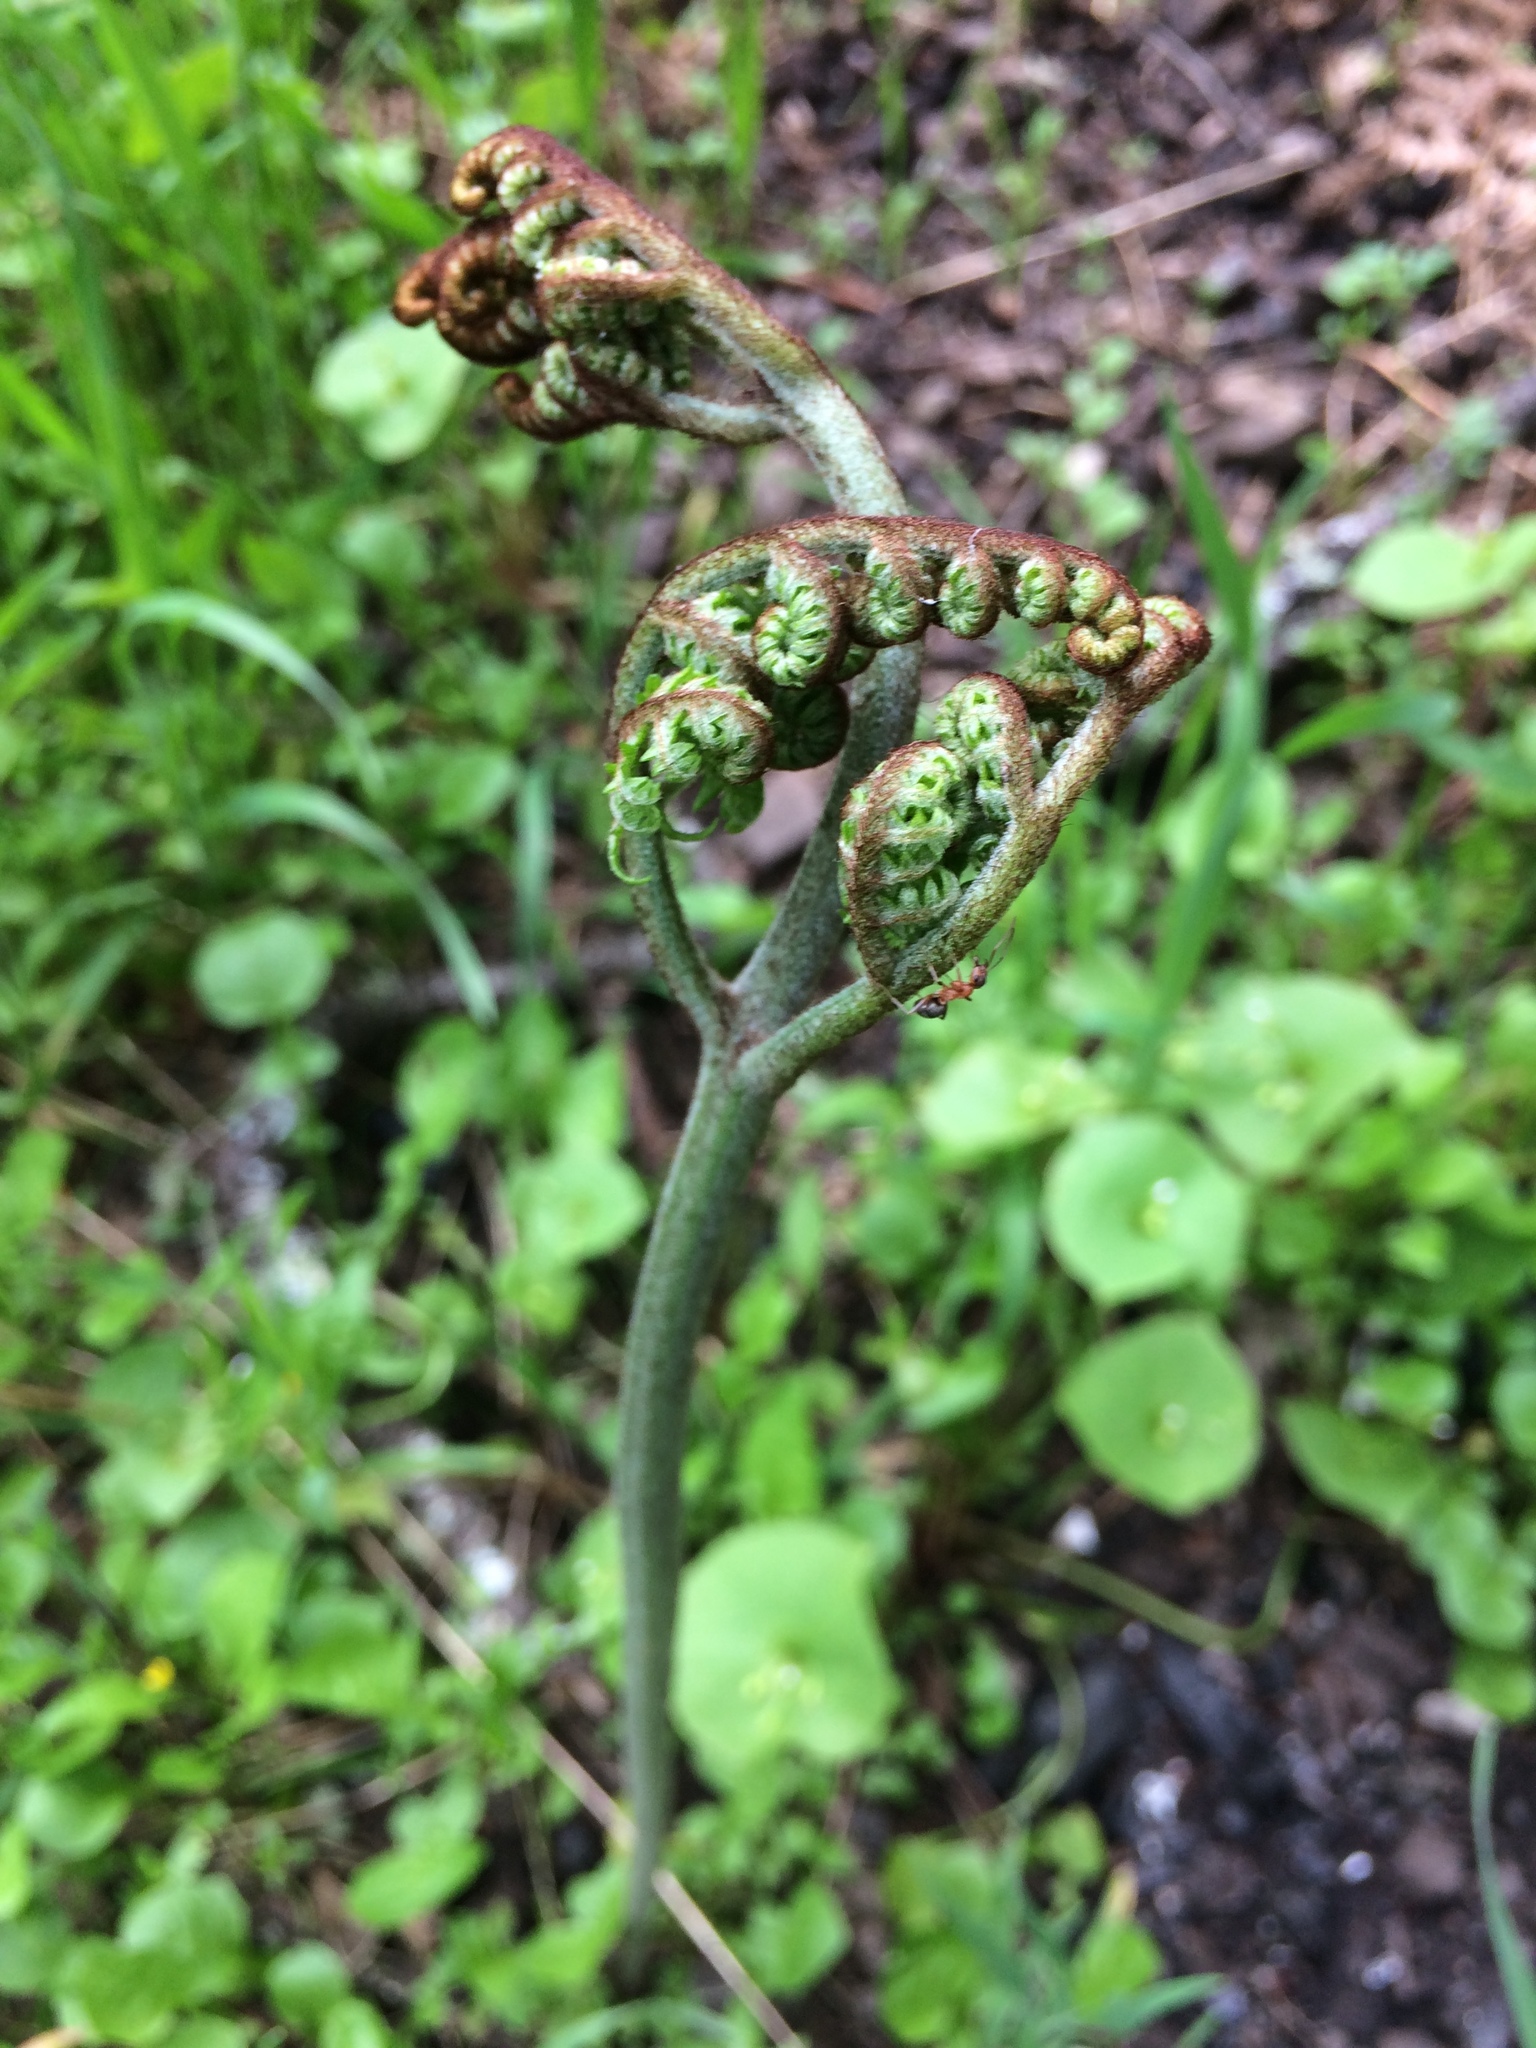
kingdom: Plantae
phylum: Tracheophyta
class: Polypodiopsida
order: Polypodiales
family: Dennstaedtiaceae
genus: Pteridium
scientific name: Pteridium aquilinum
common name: Bracken
